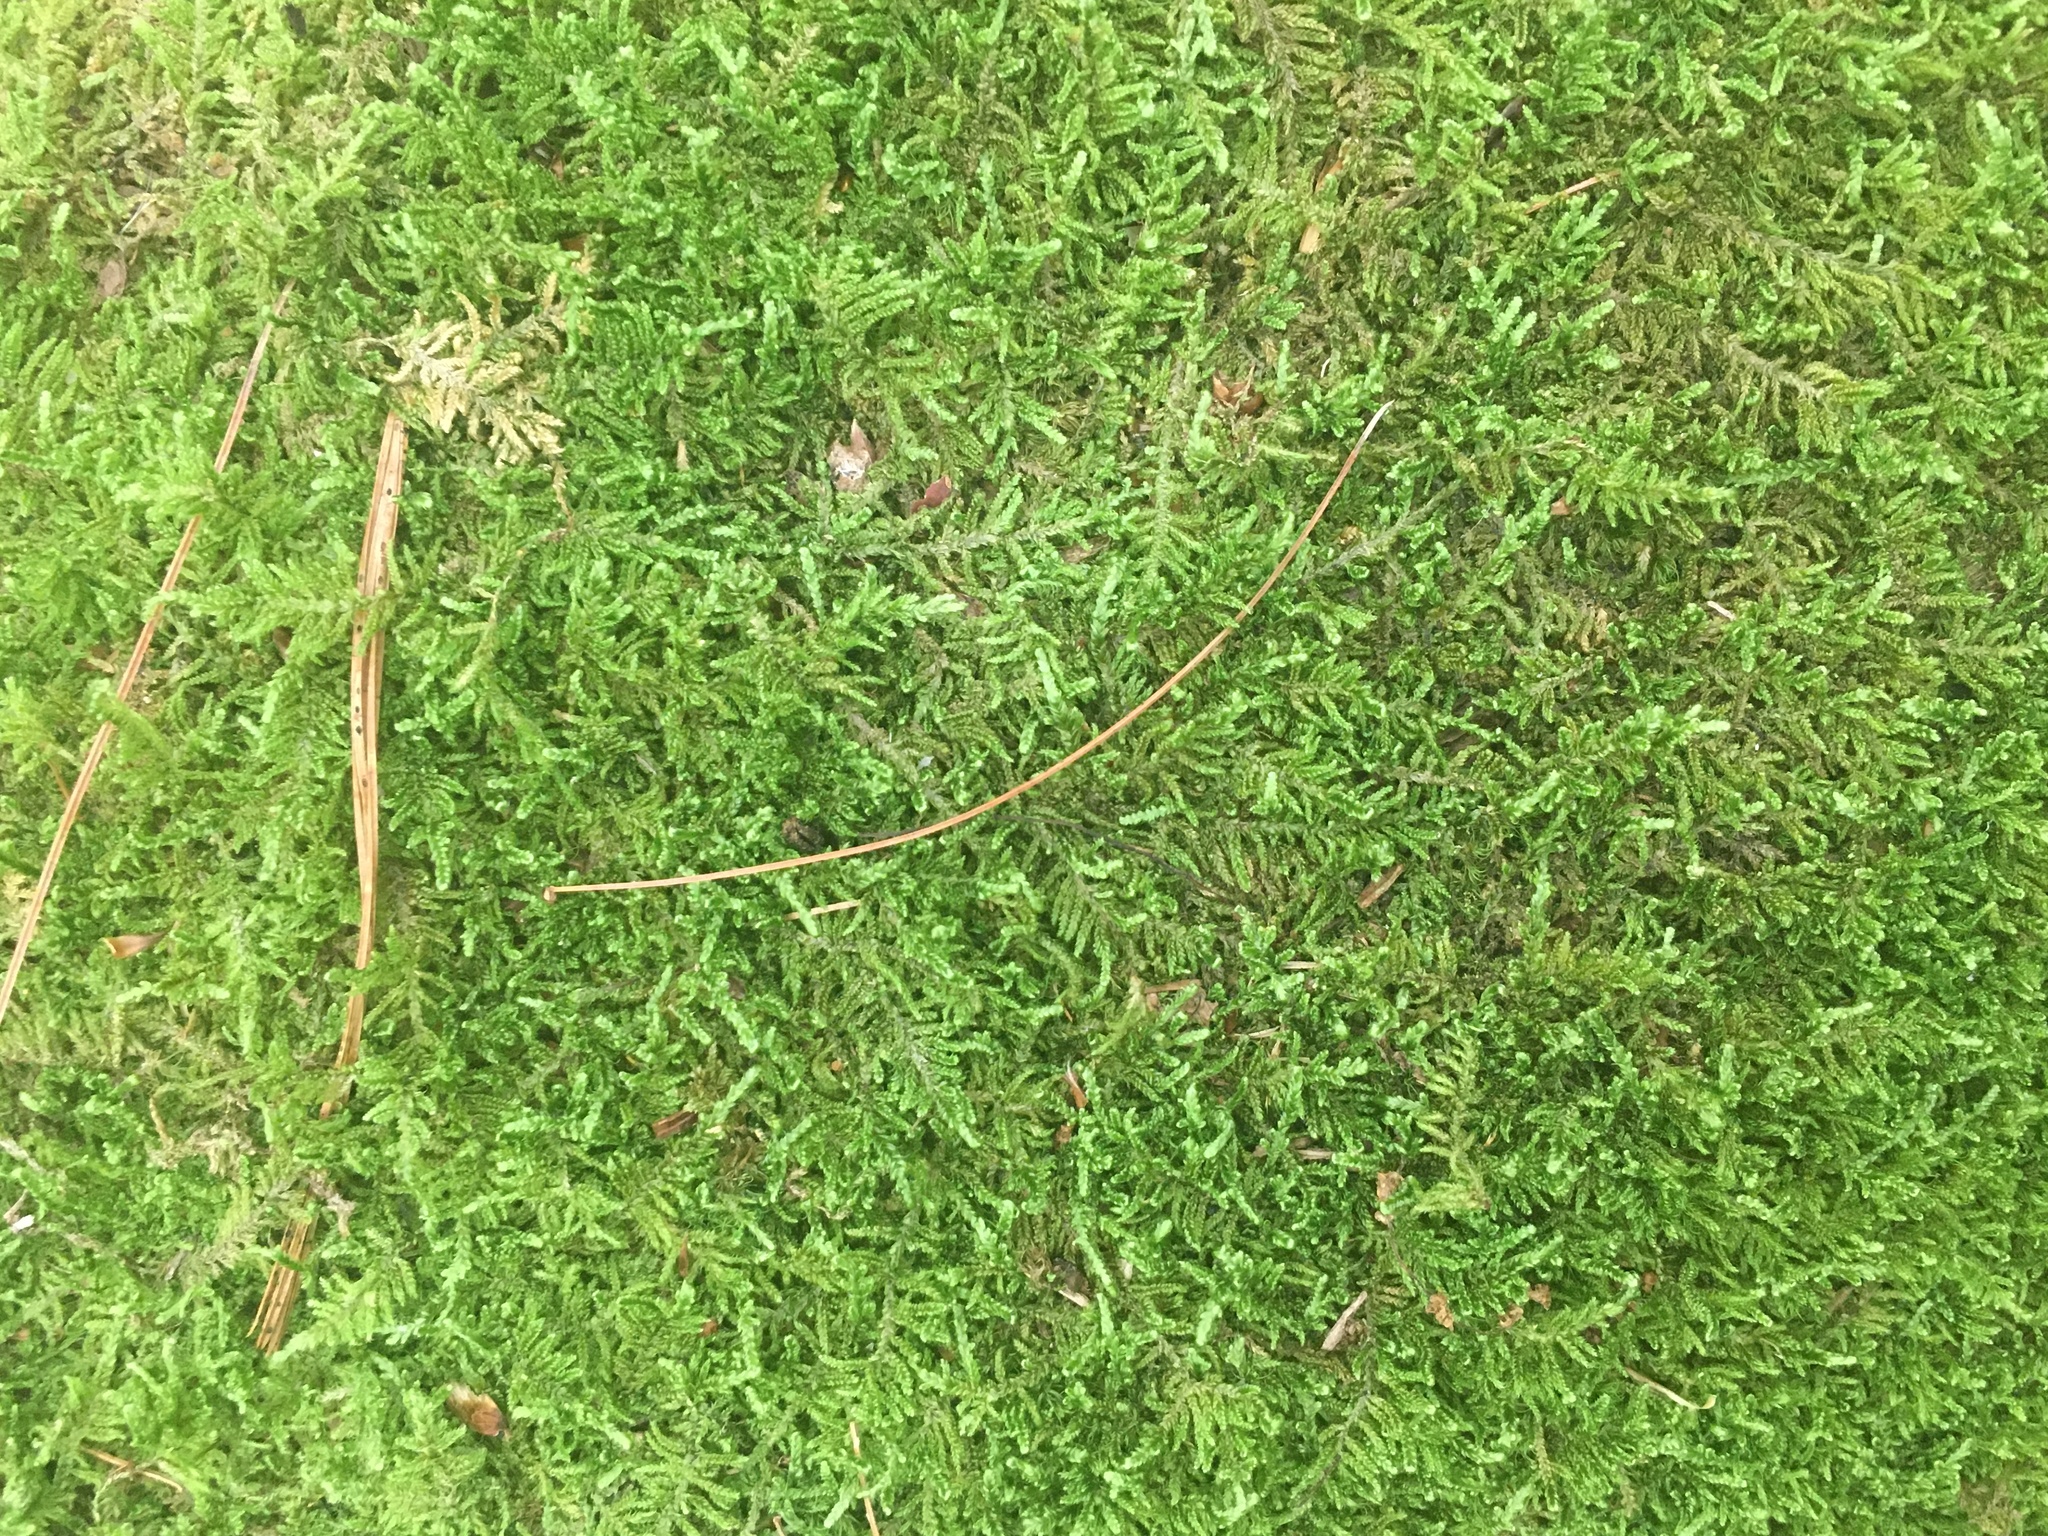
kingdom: Plantae
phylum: Bryophyta
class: Bryopsida
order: Hypnales
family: Thuidiaceae
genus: Thuidium
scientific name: Thuidium delicatulum
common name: Delicate fern moss
